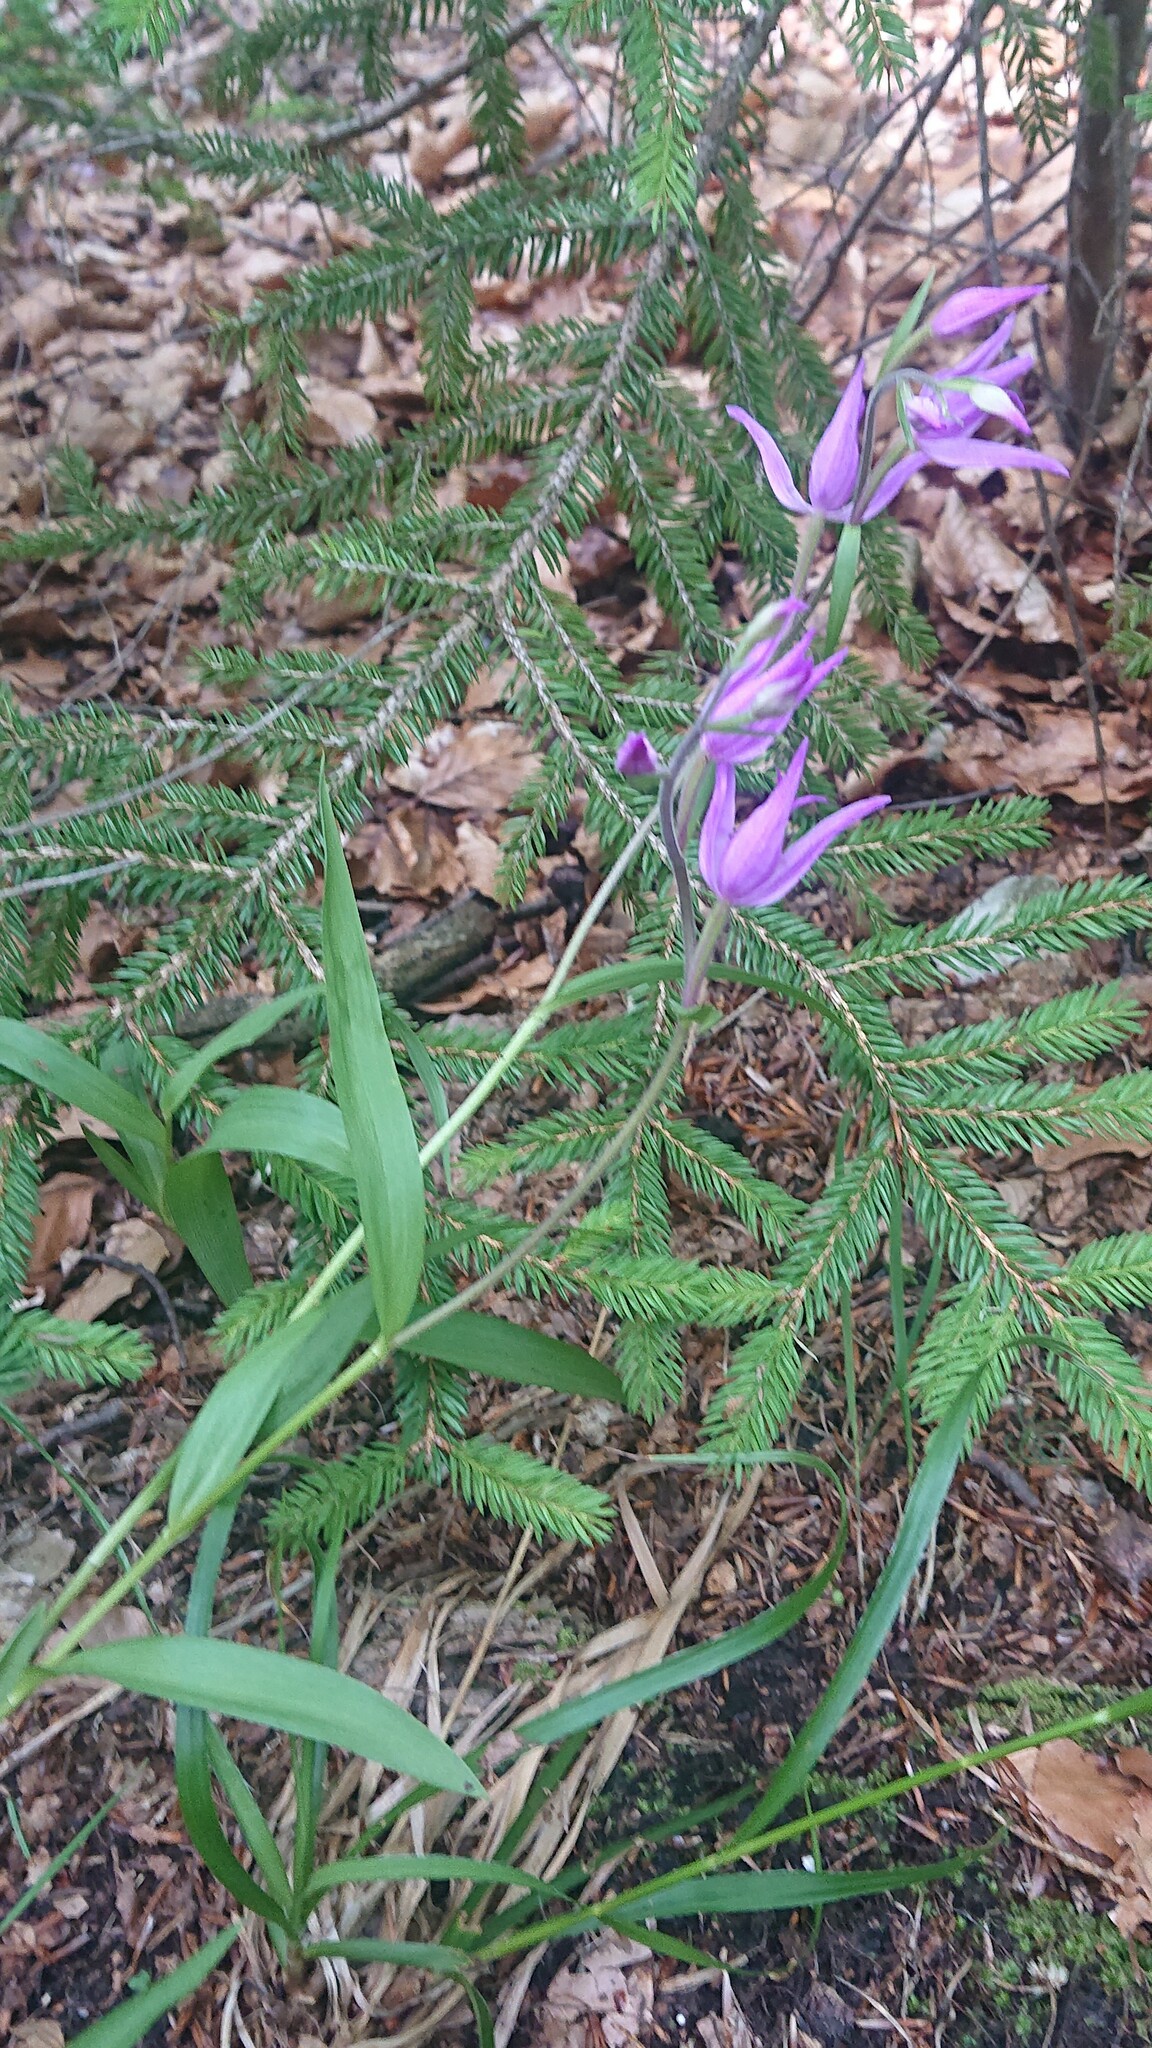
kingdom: Plantae
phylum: Tracheophyta
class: Liliopsida
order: Asparagales
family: Orchidaceae
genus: Cephalanthera
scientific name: Cephalanthera rubra
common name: Red helleborine
